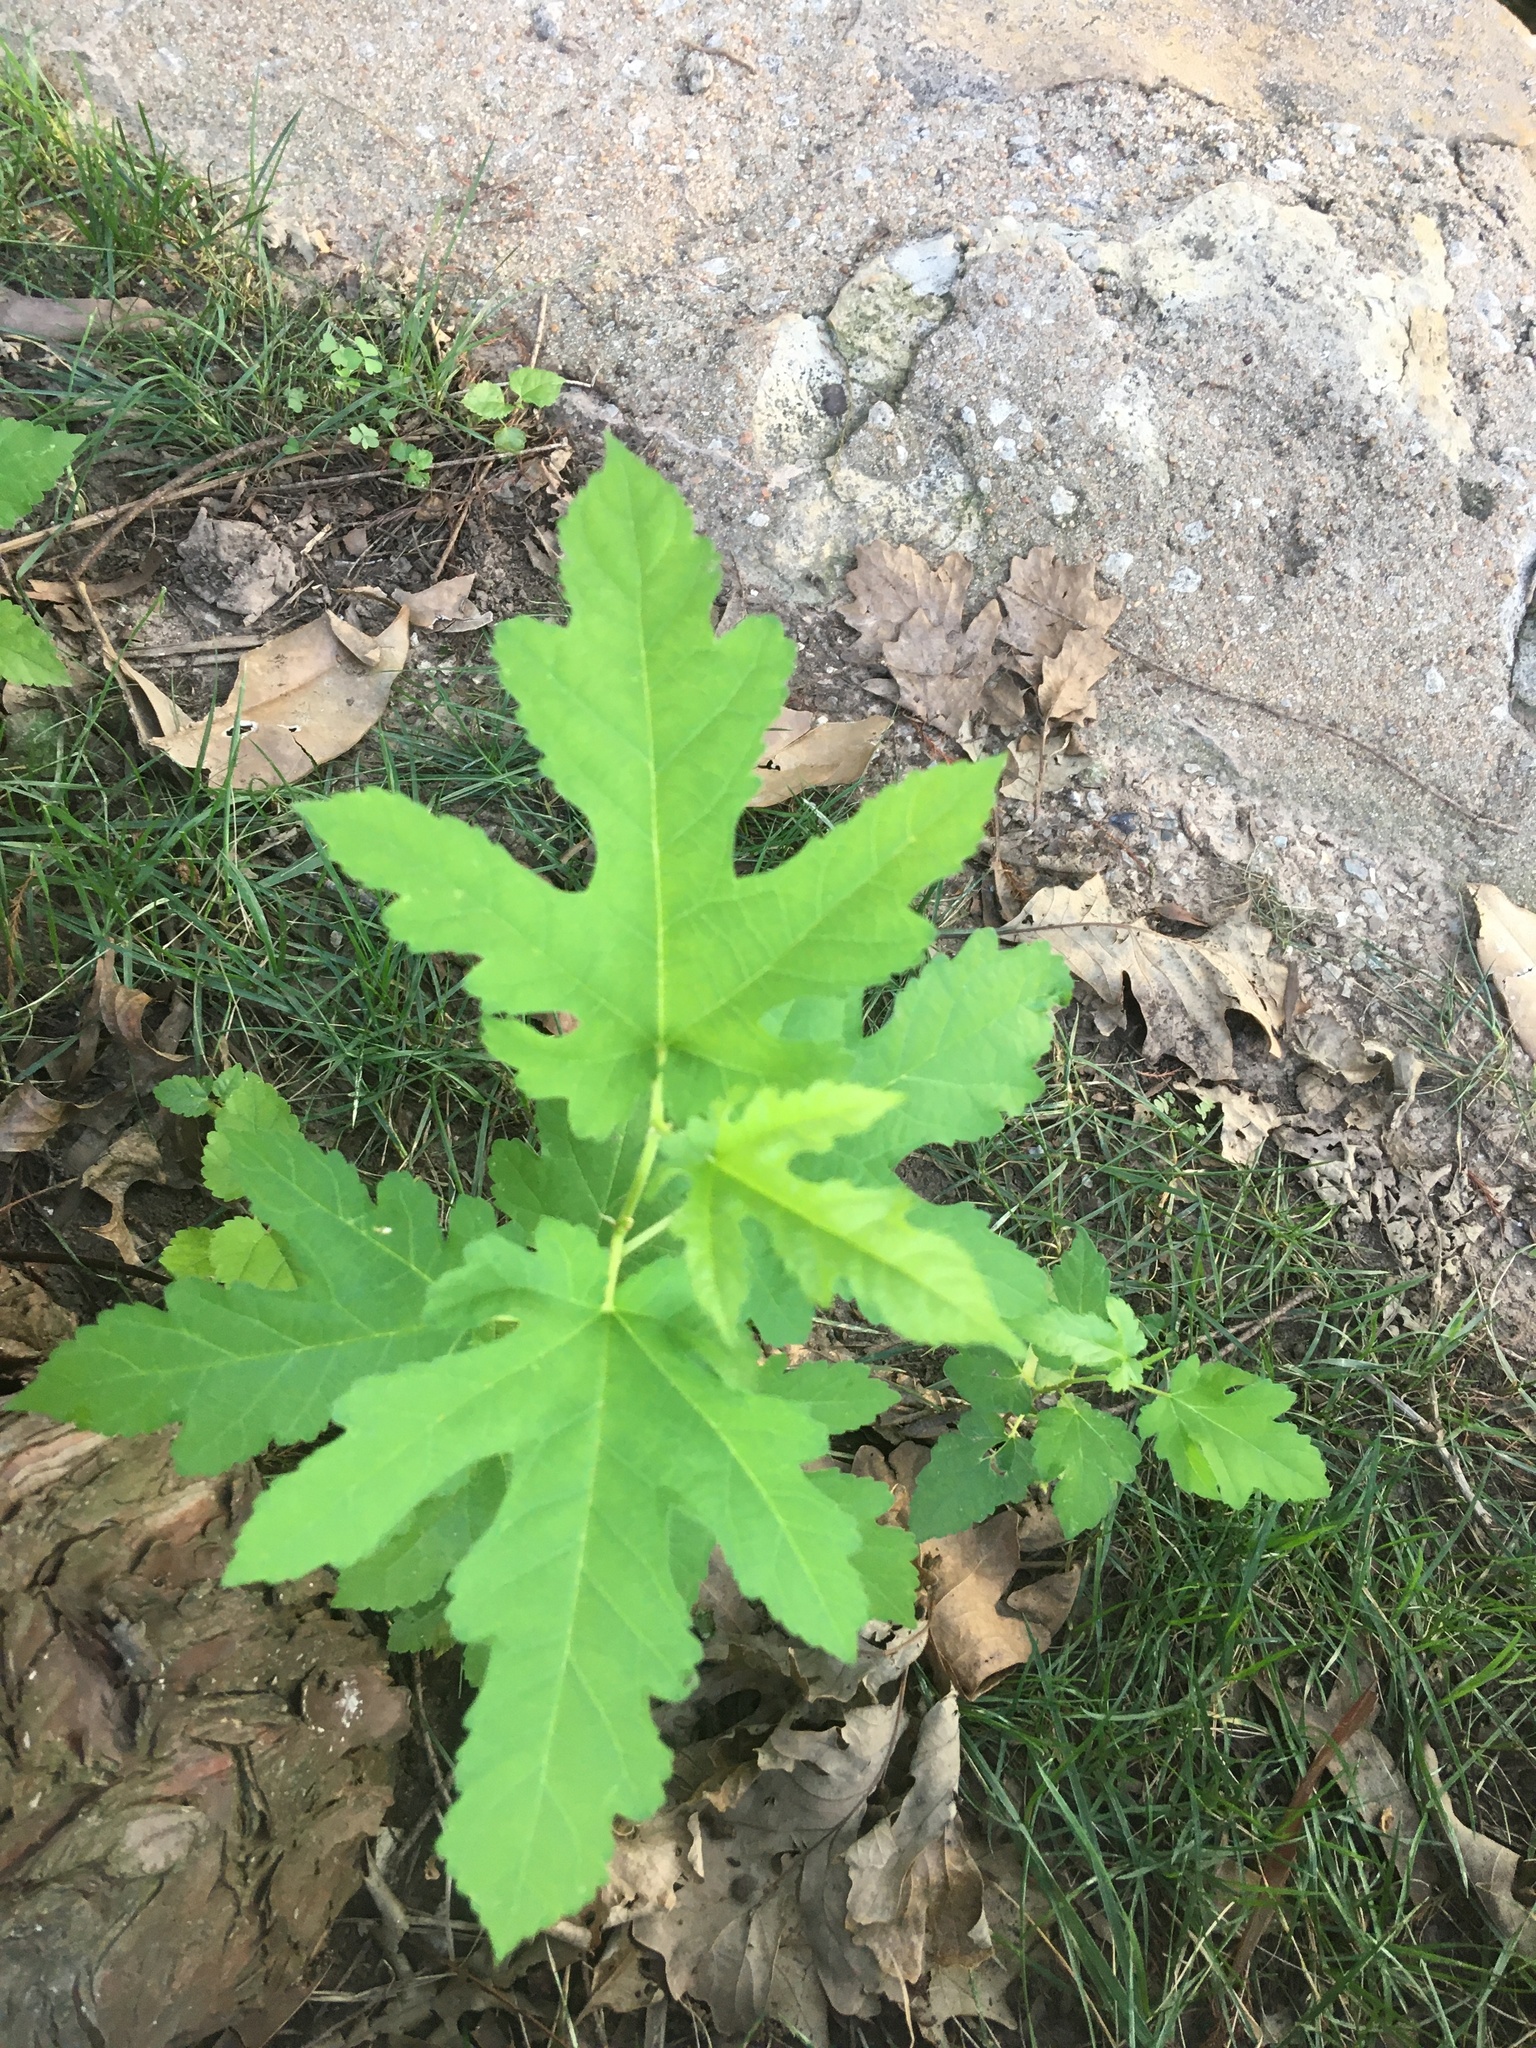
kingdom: Plantae
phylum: Tracheophyta
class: Magnoliopsida
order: Rosales
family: Moraceae
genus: Morus
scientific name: Morus alba
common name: White mulberry
